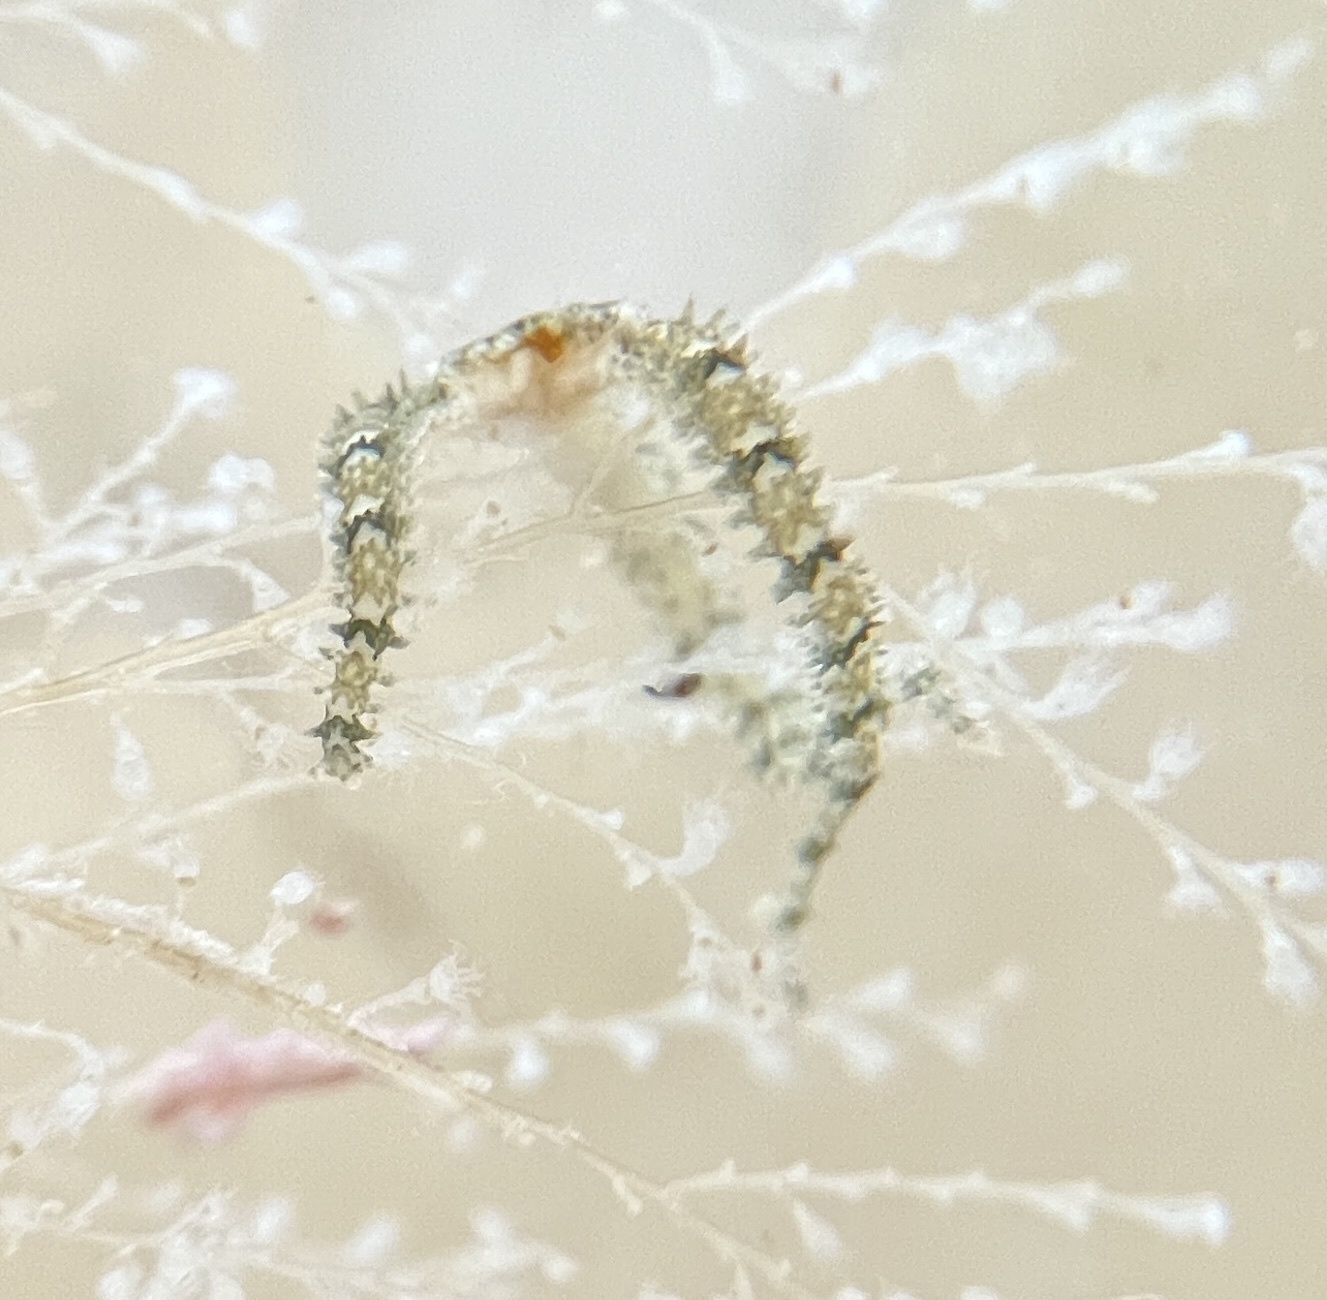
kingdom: Animalia
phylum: Echinodermata
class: Ophiuroidea
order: Amphilepidida
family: Ophiactidae
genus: Ophiactis
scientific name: Ophiactis savignyi
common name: Savigny's brittle star
